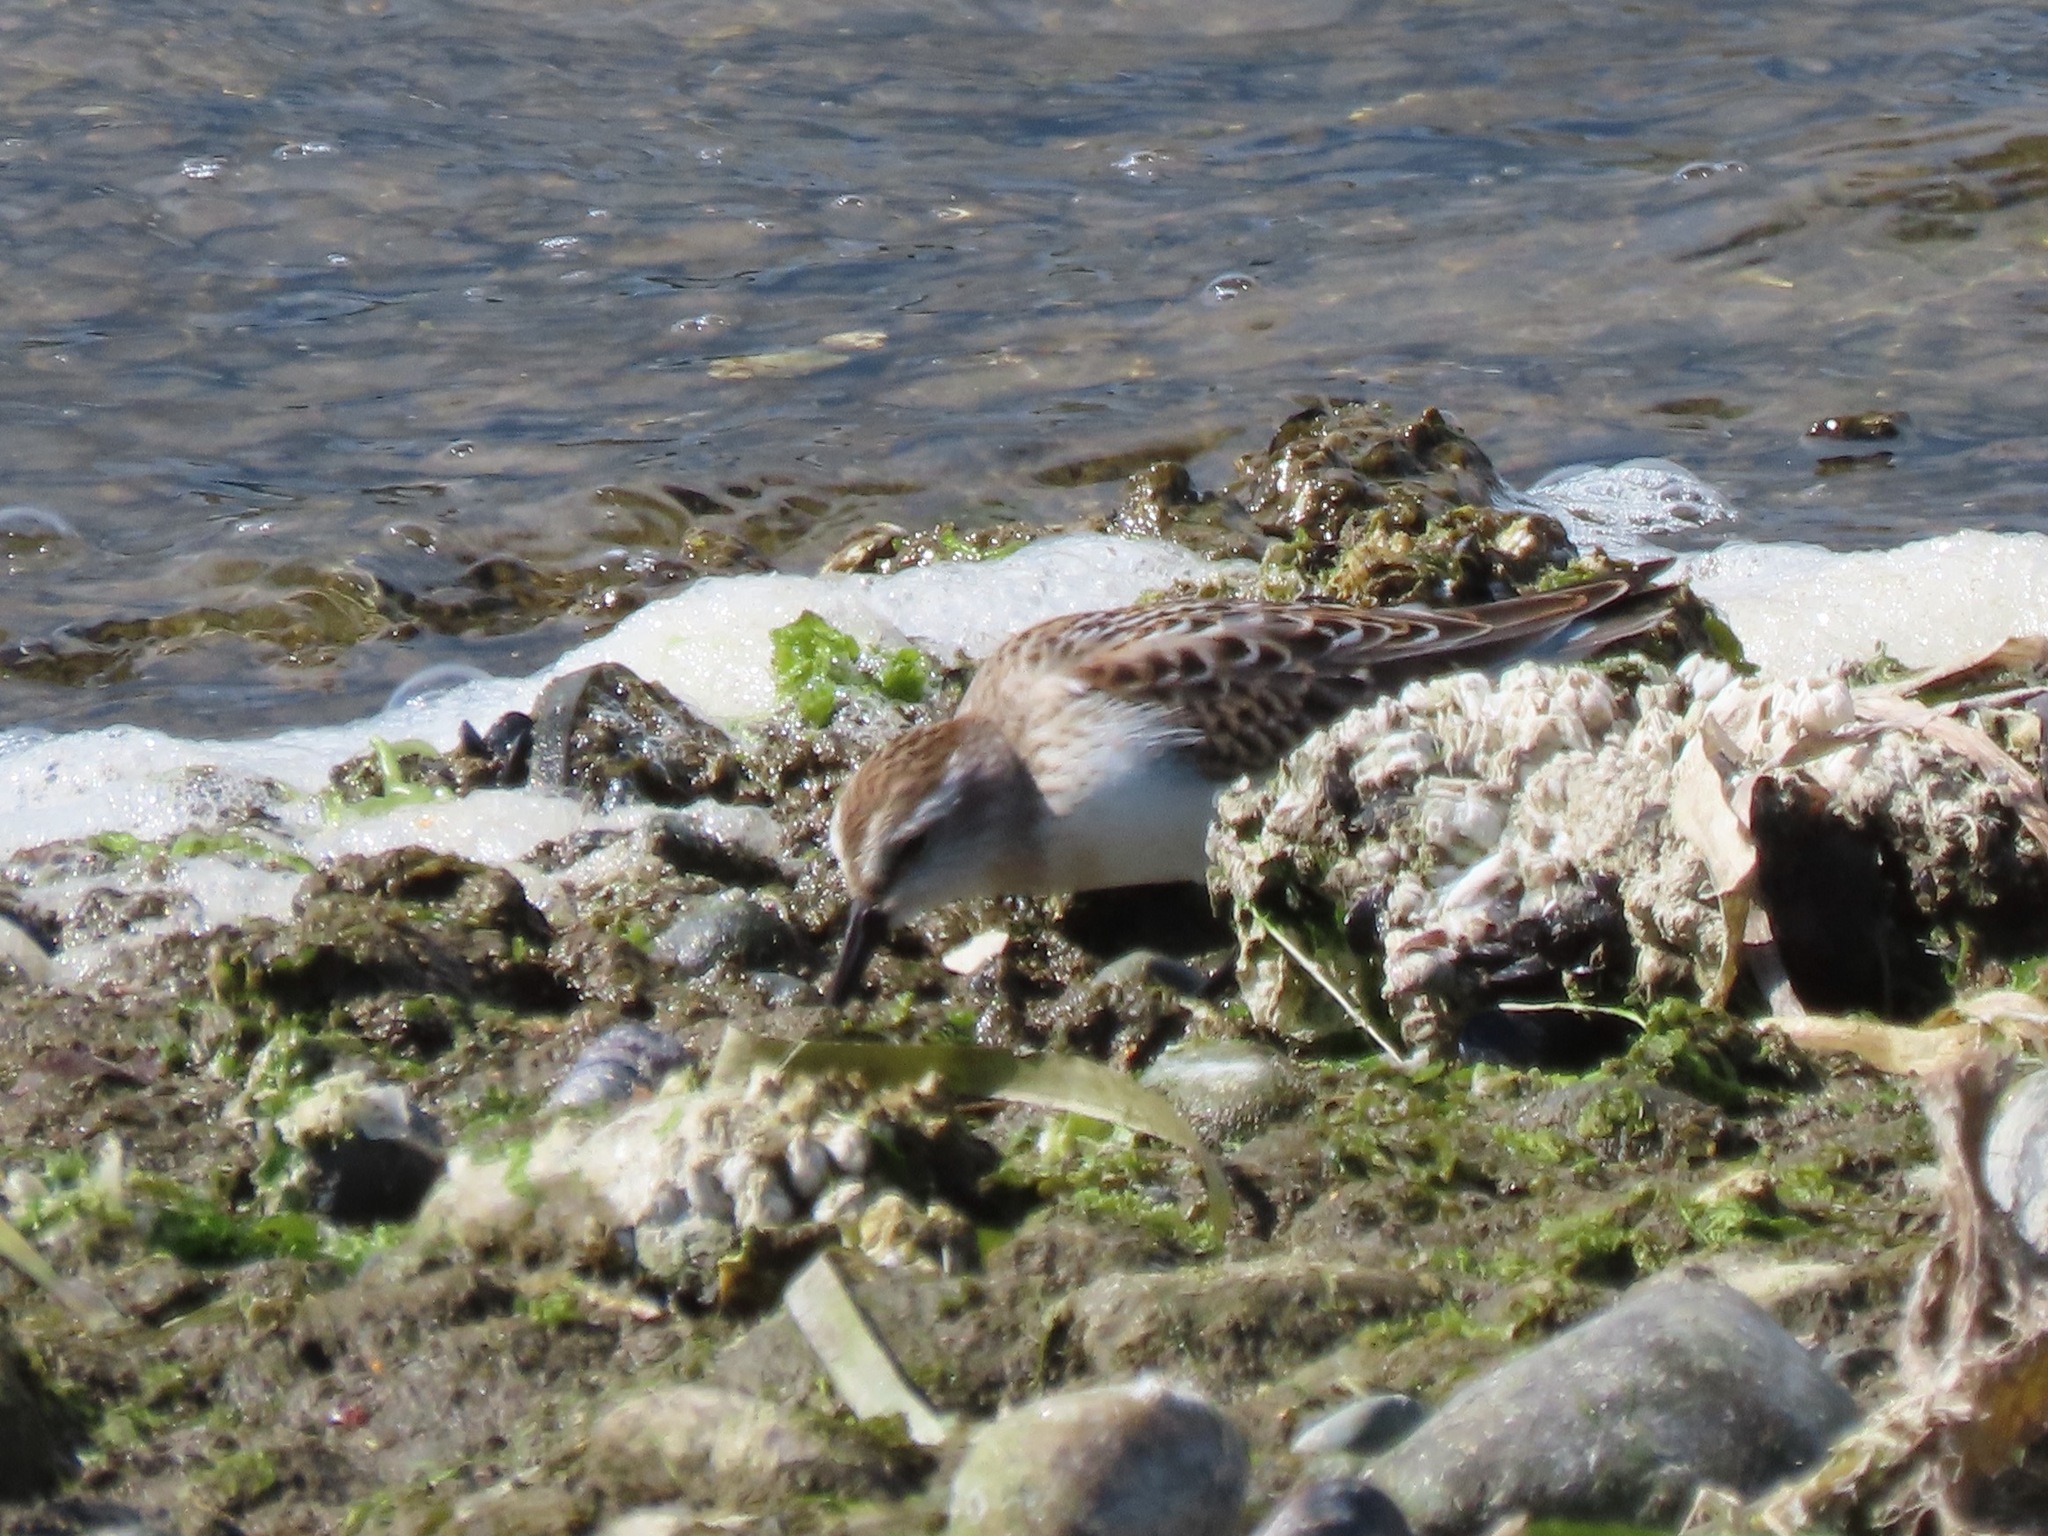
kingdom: Animalia
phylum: Chordata
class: Aves
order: Charadriiformes
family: Scolopacidae
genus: Calidris
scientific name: Calidris mauri
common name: Western sandpiper
